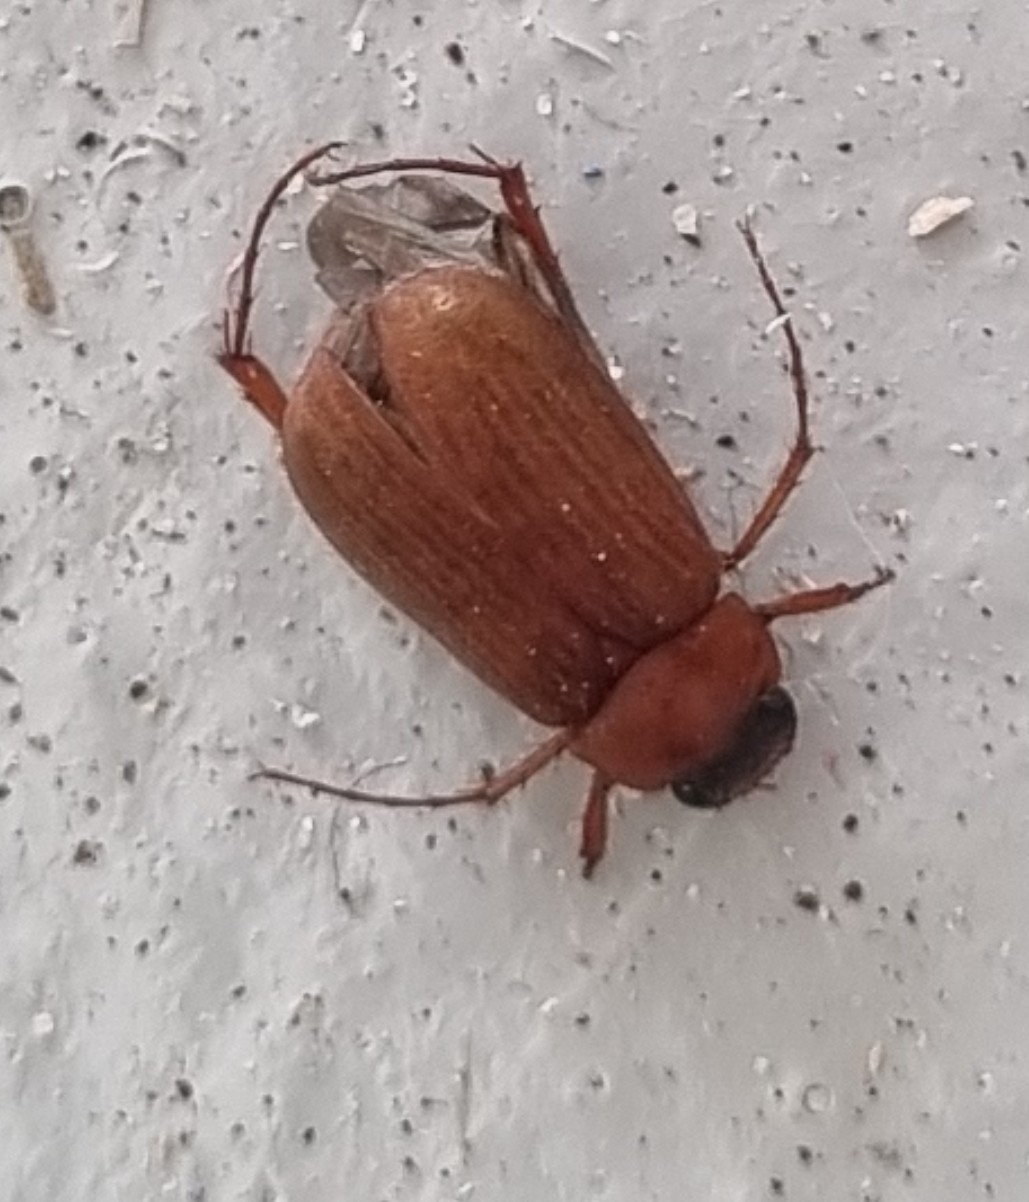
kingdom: Animalia
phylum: Arthropoda
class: Insecta
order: Coleoptera
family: Scarabaeidae
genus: Serica
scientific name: Serica brunnea
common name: Brown chafer
